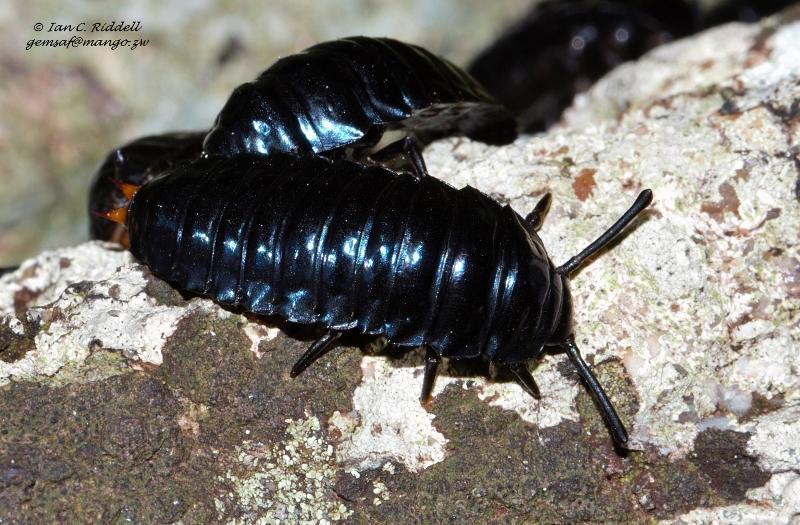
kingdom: Animalia
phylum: Arthropoda
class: Insecta
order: Coleoptera
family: Tenebrionidae
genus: Catamerus
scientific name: Catamerus
